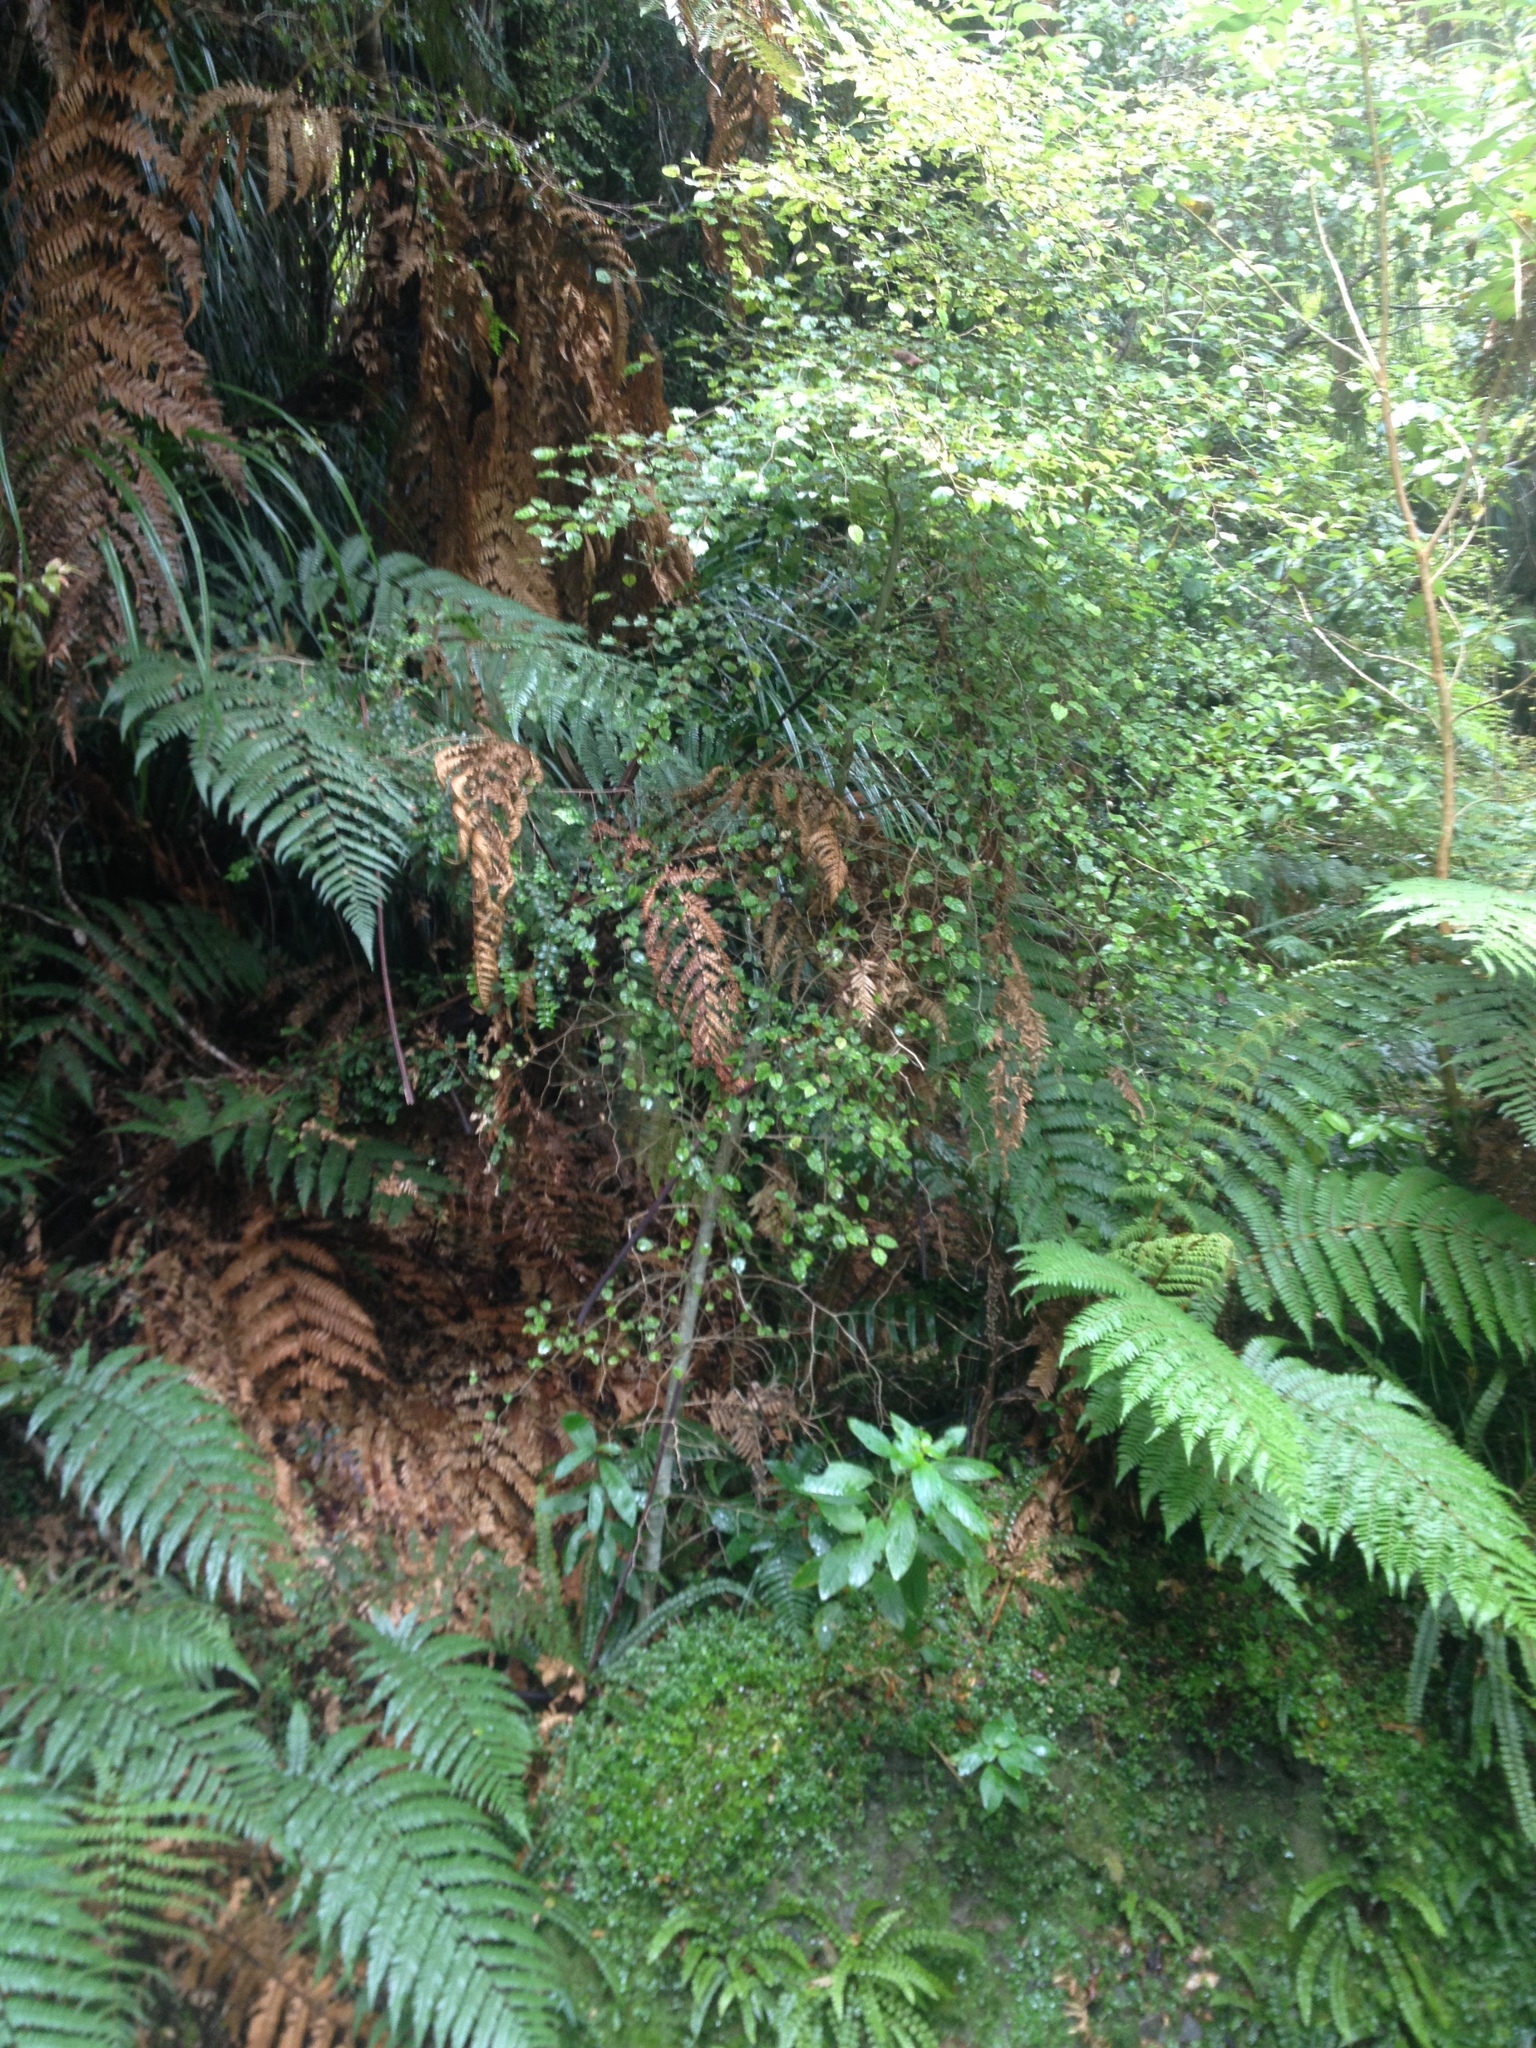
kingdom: Plantae
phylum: Tracheophyta
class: Magnoliopsida
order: Asterales
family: Rousseaceae
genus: Carpodetus
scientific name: Carpodetus serratus
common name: White mapau
